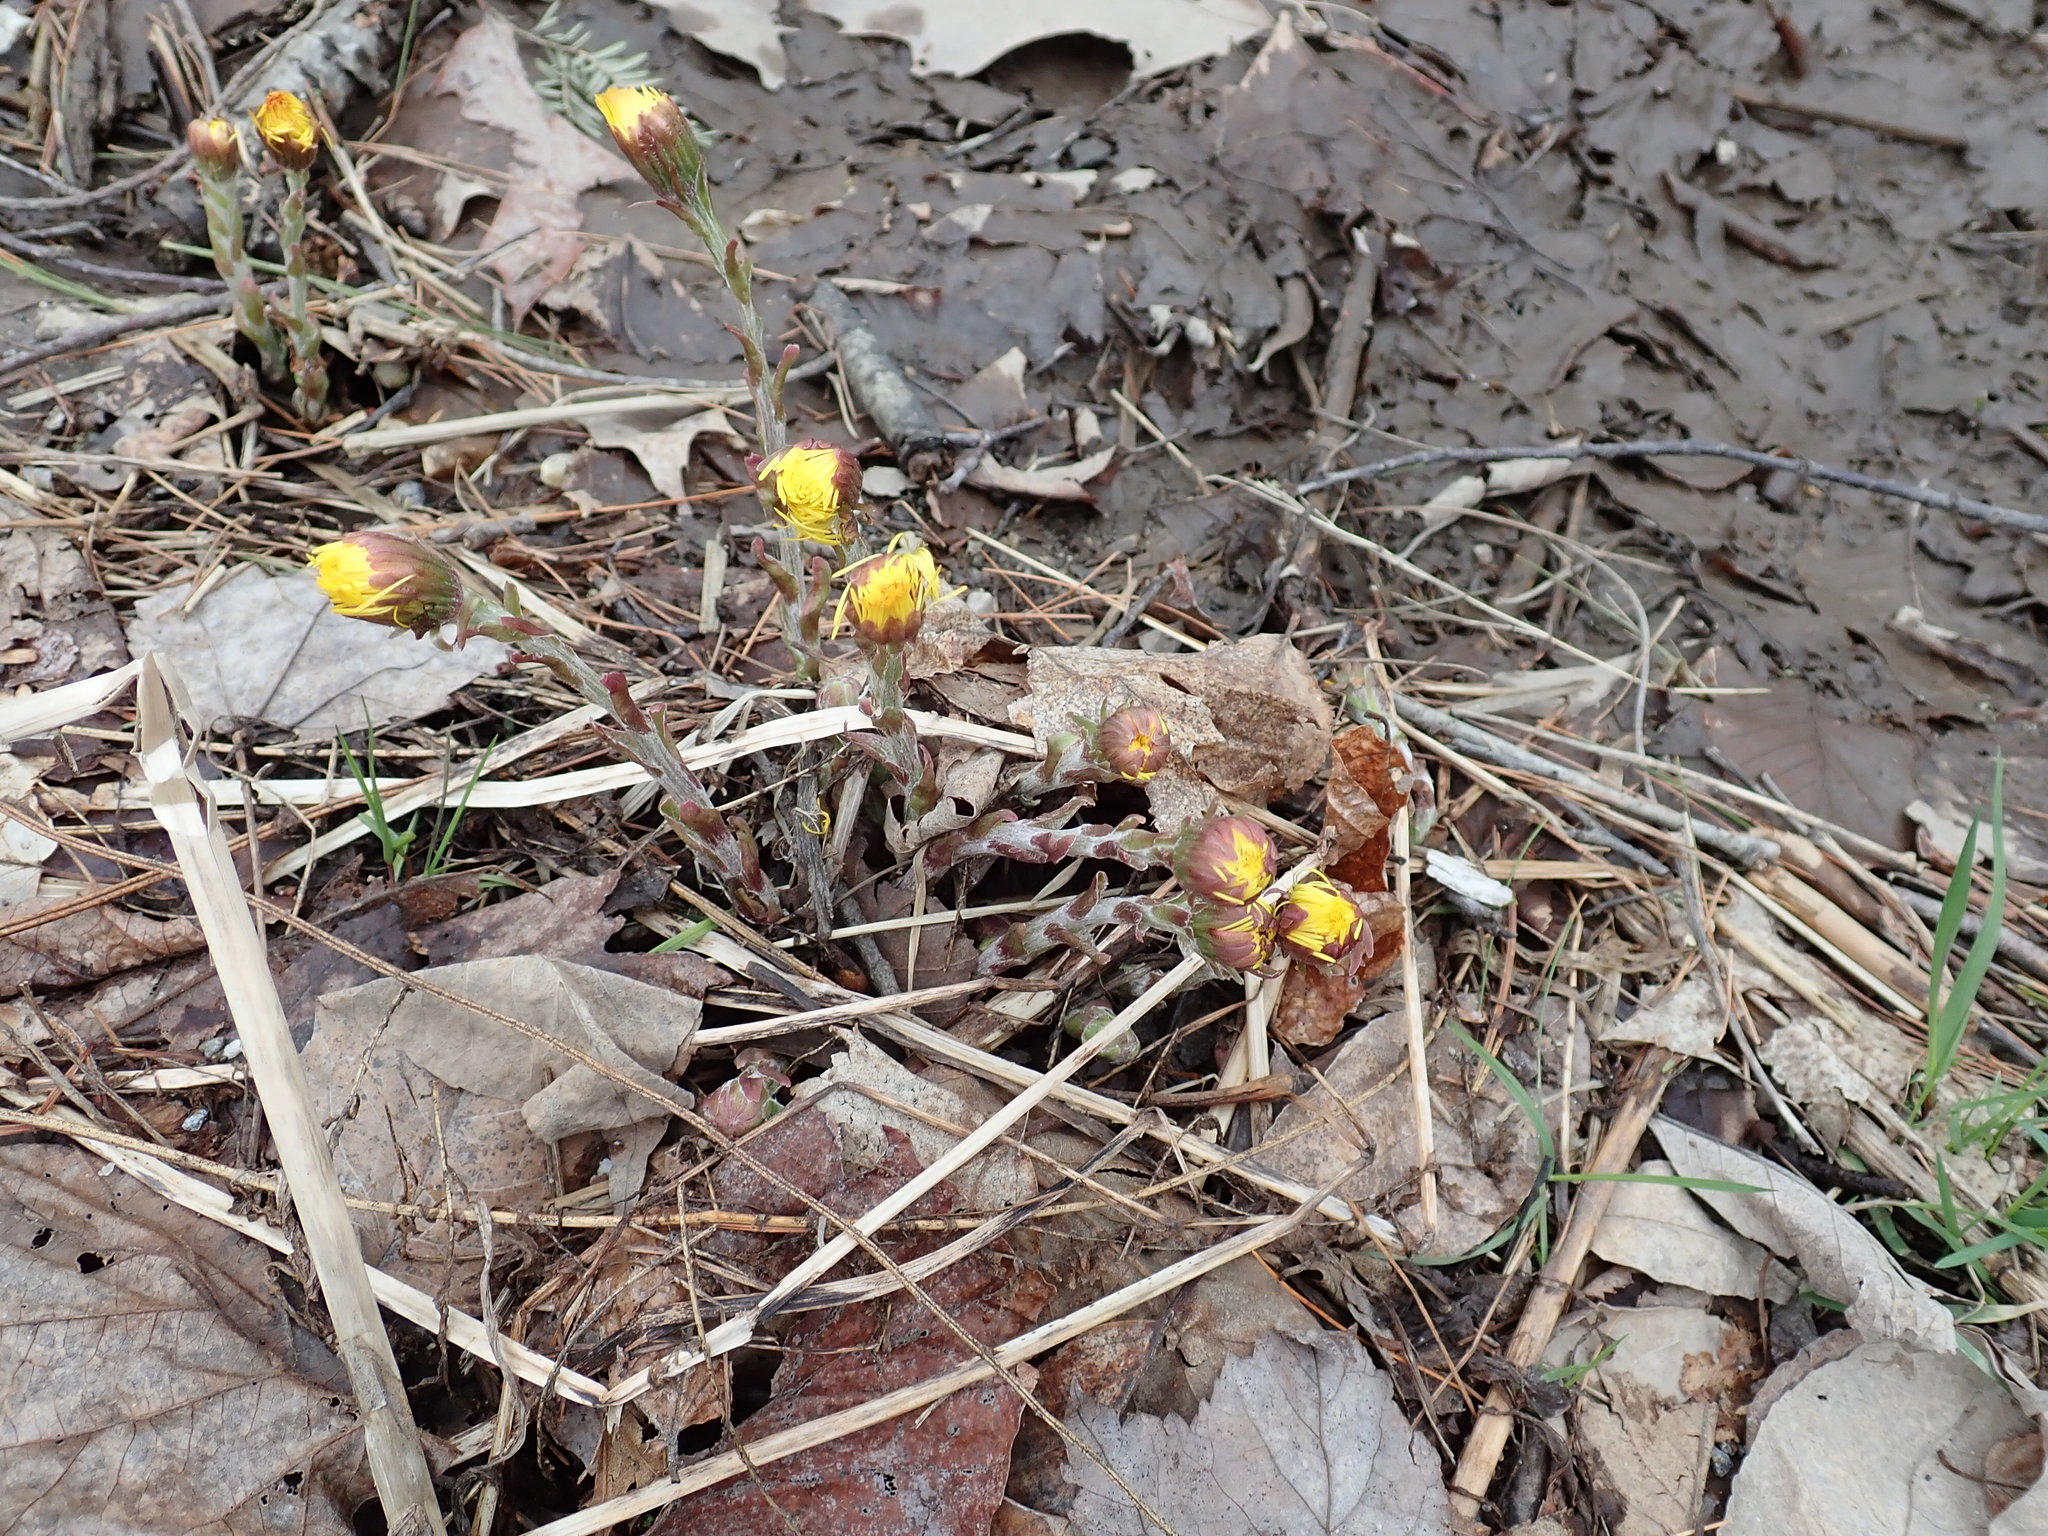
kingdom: Plantae
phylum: Tracheophyta
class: Magnoliopsida
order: Asterales
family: Asteraceae
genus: Tussilago
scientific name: Tussilago farfara
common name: Coltsfoot
